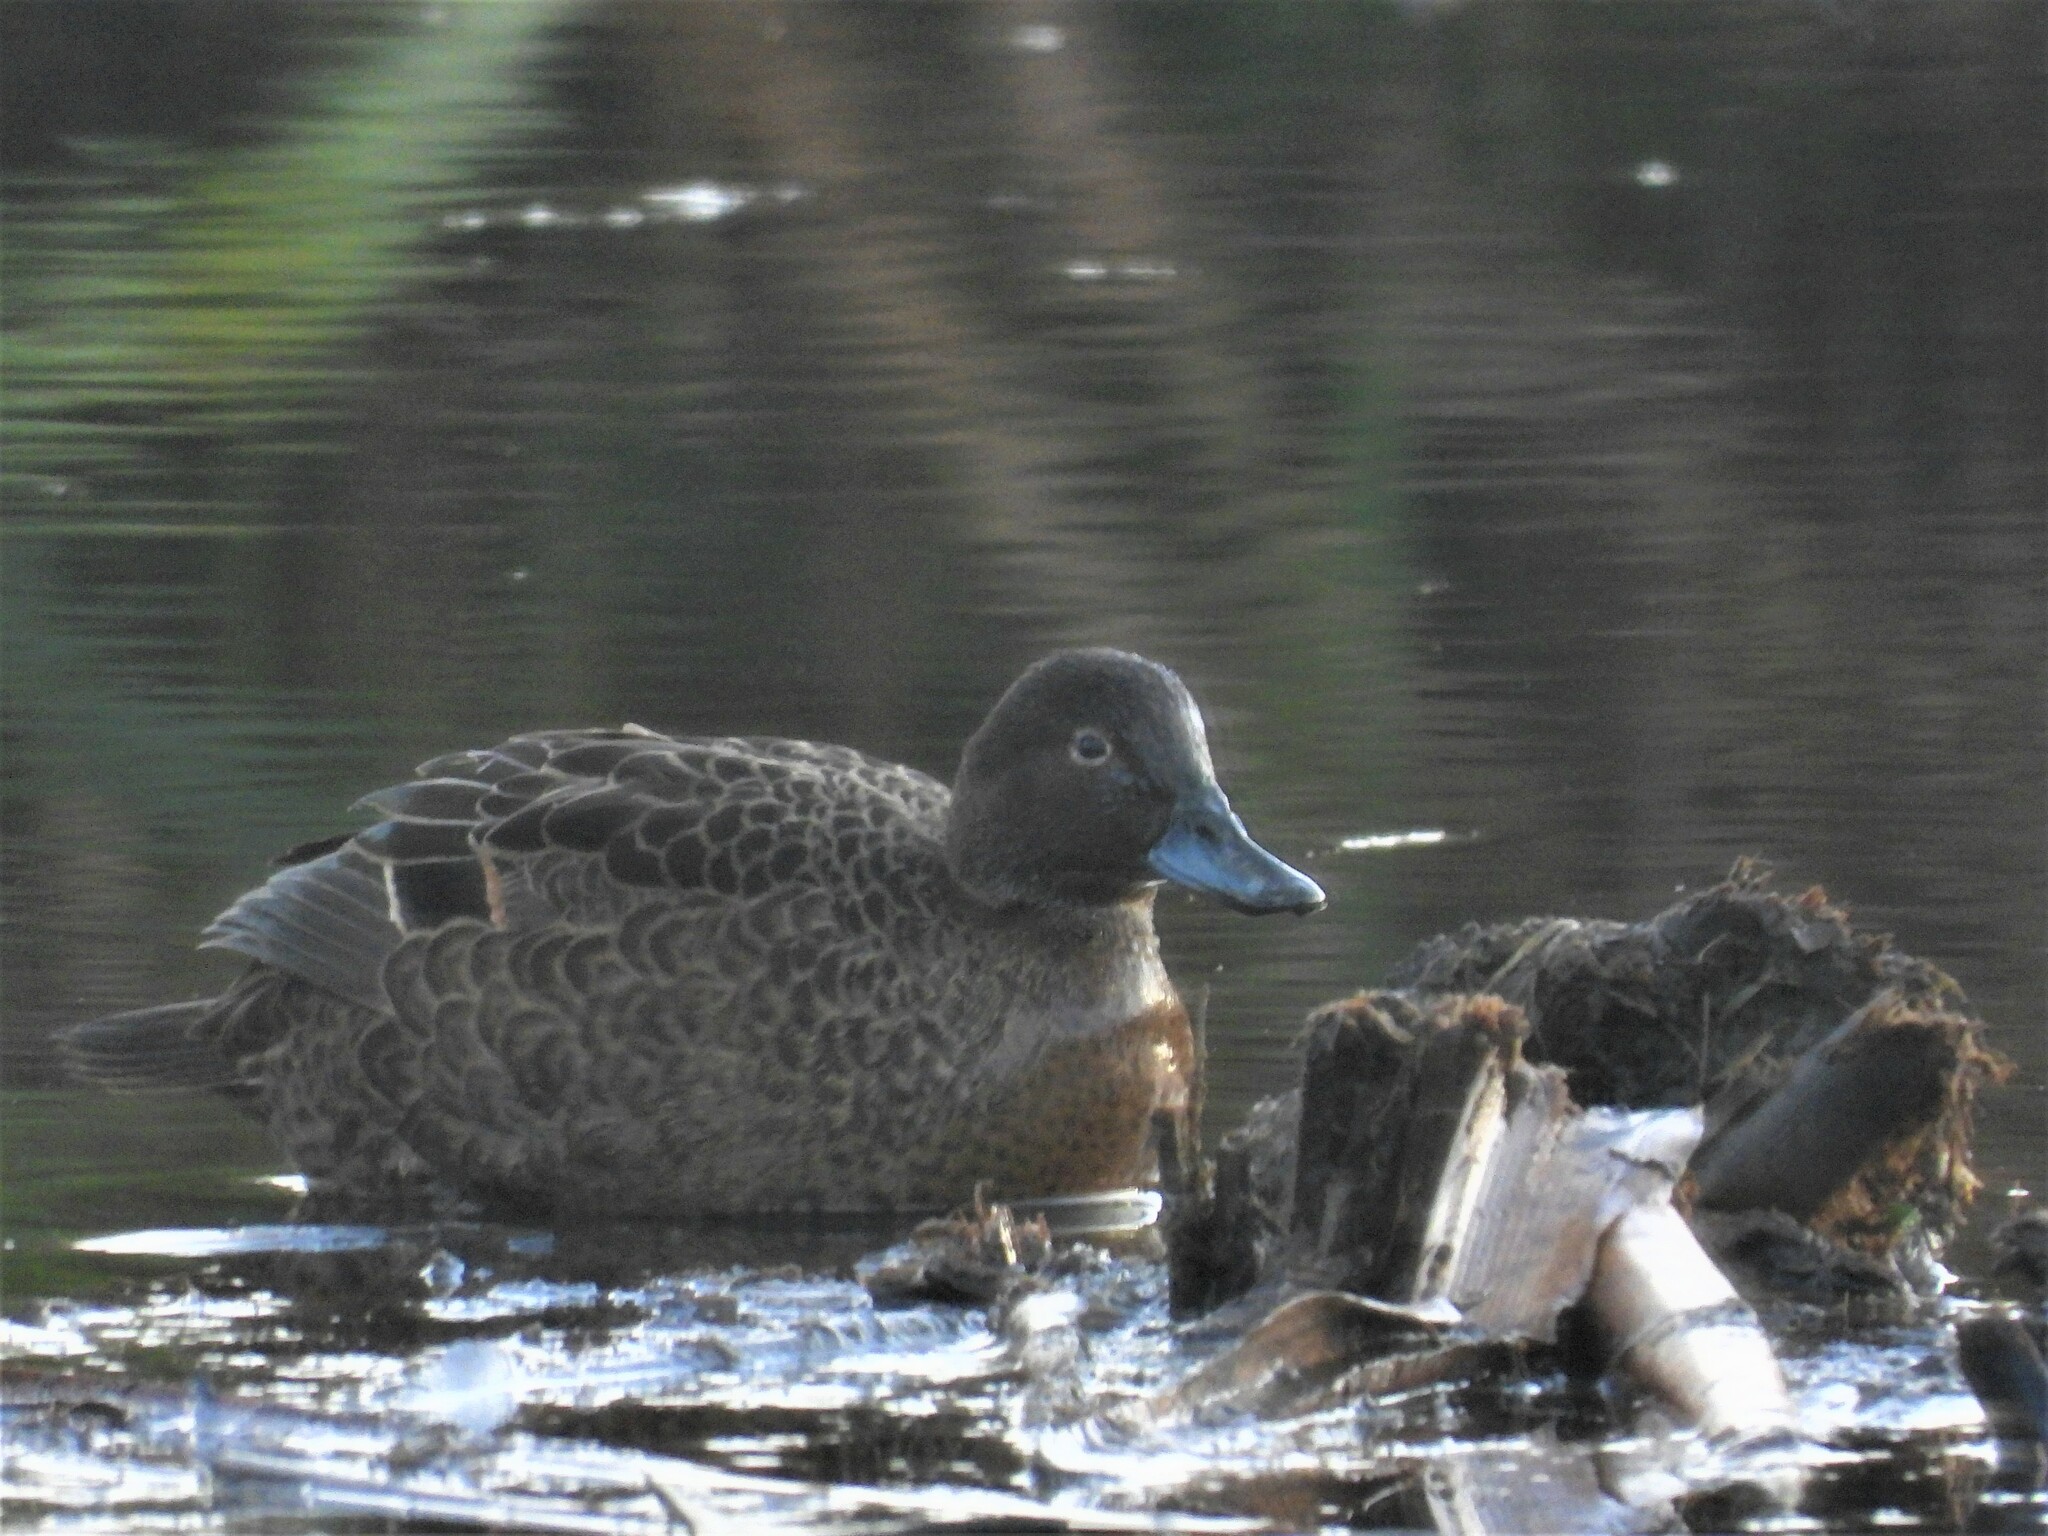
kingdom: Animalia
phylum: Chordata
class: Aves
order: Anseriformes
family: Anatidae
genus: Anas
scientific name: Anas chlorotis
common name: Brown teal
